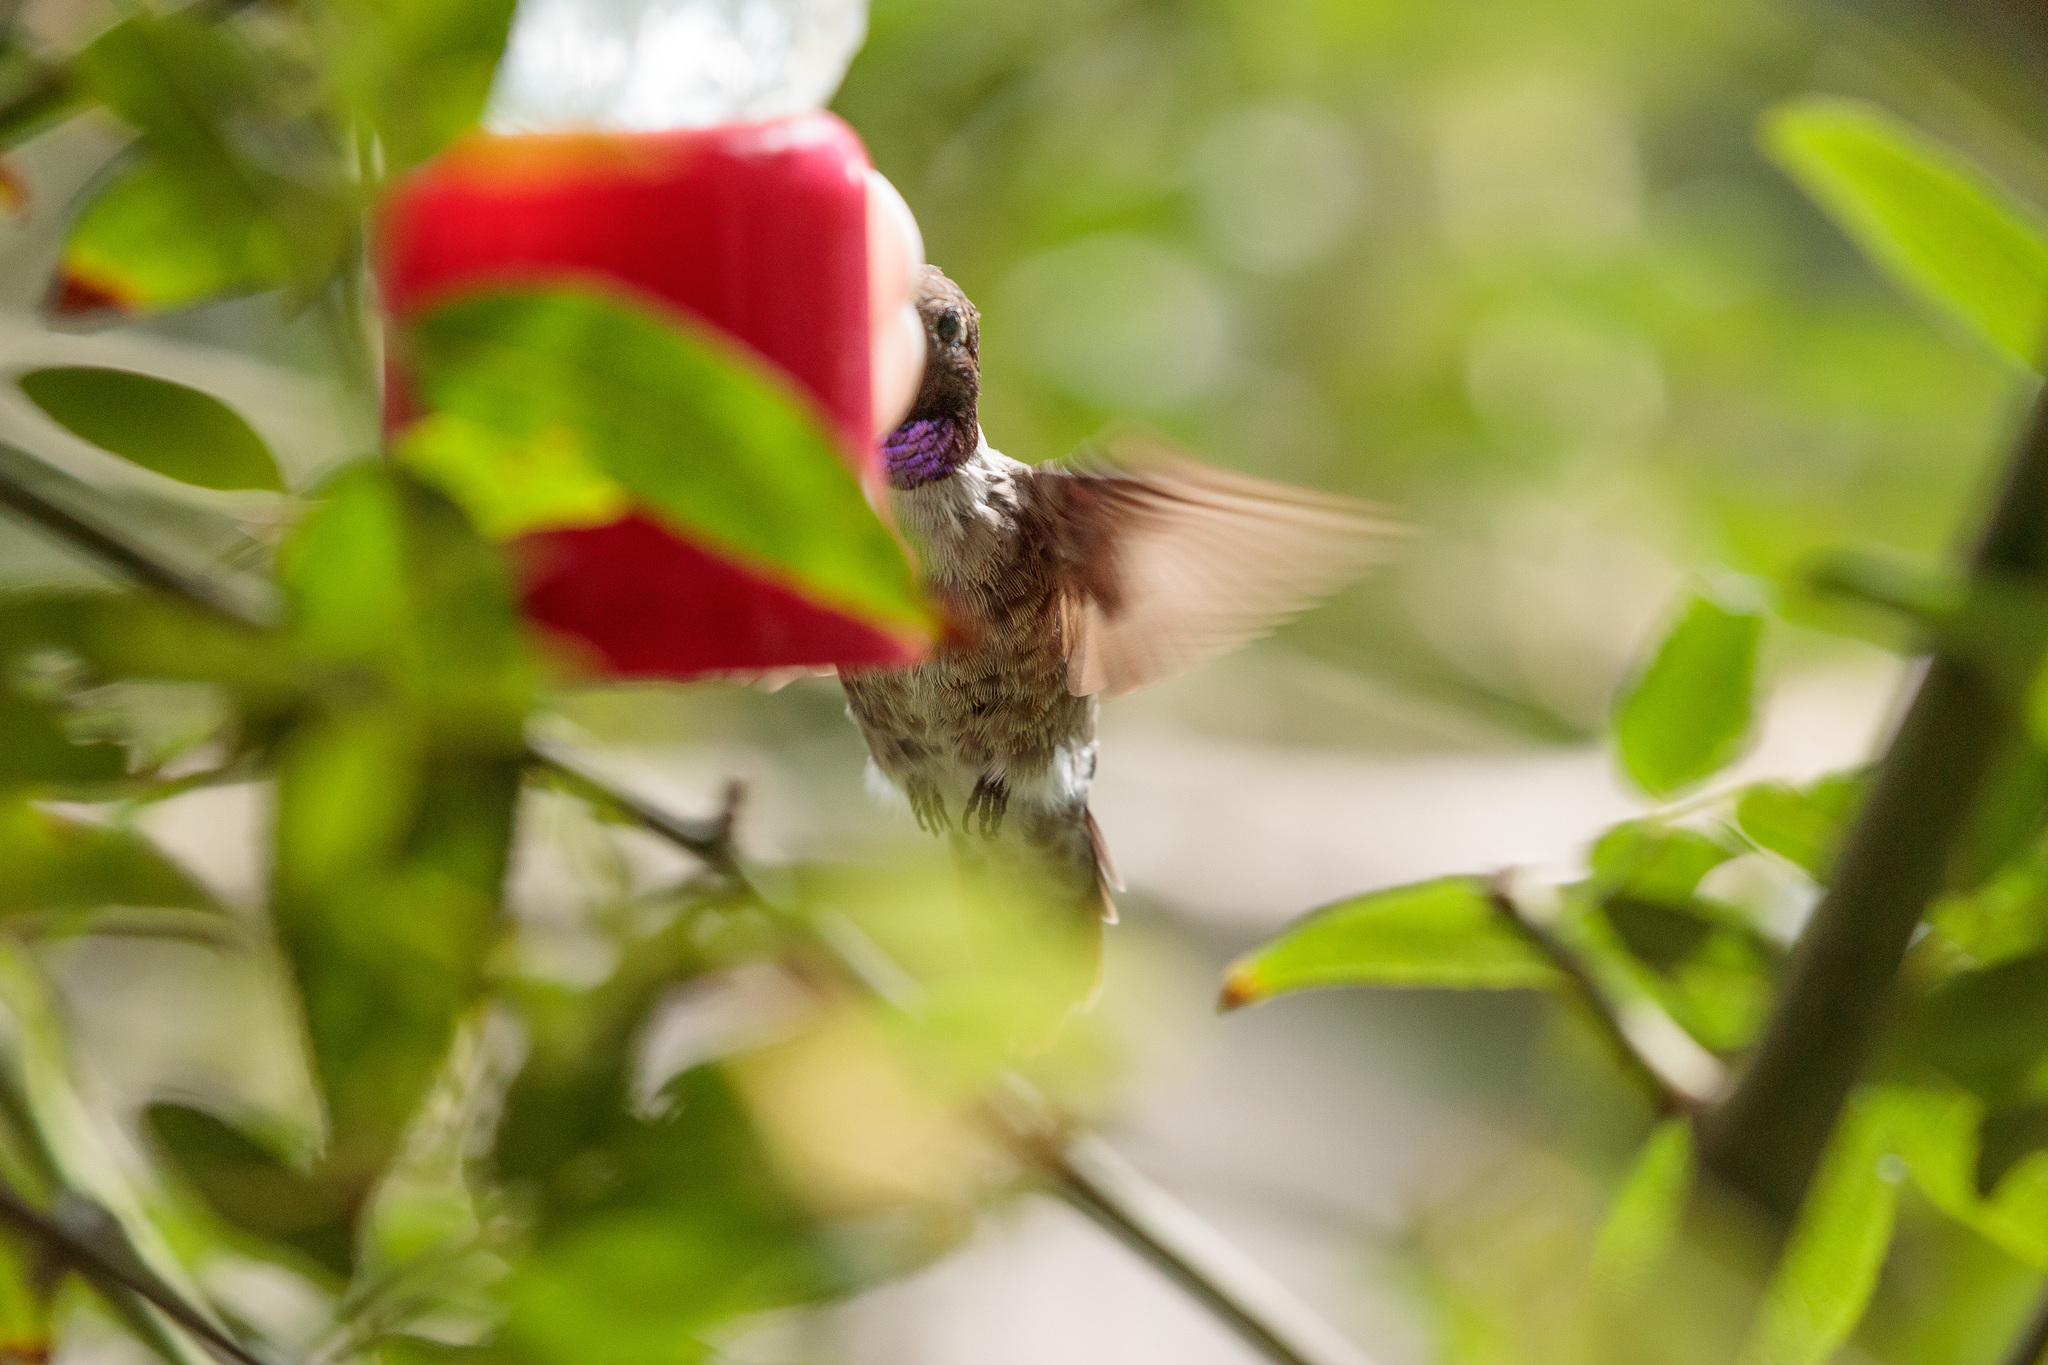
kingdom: Animalia
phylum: Chordata
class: Aves
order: Apodiformes
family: Trochilidae
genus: Archilochus
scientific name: Archilochus alexandri
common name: Black-chinned hummingbird
